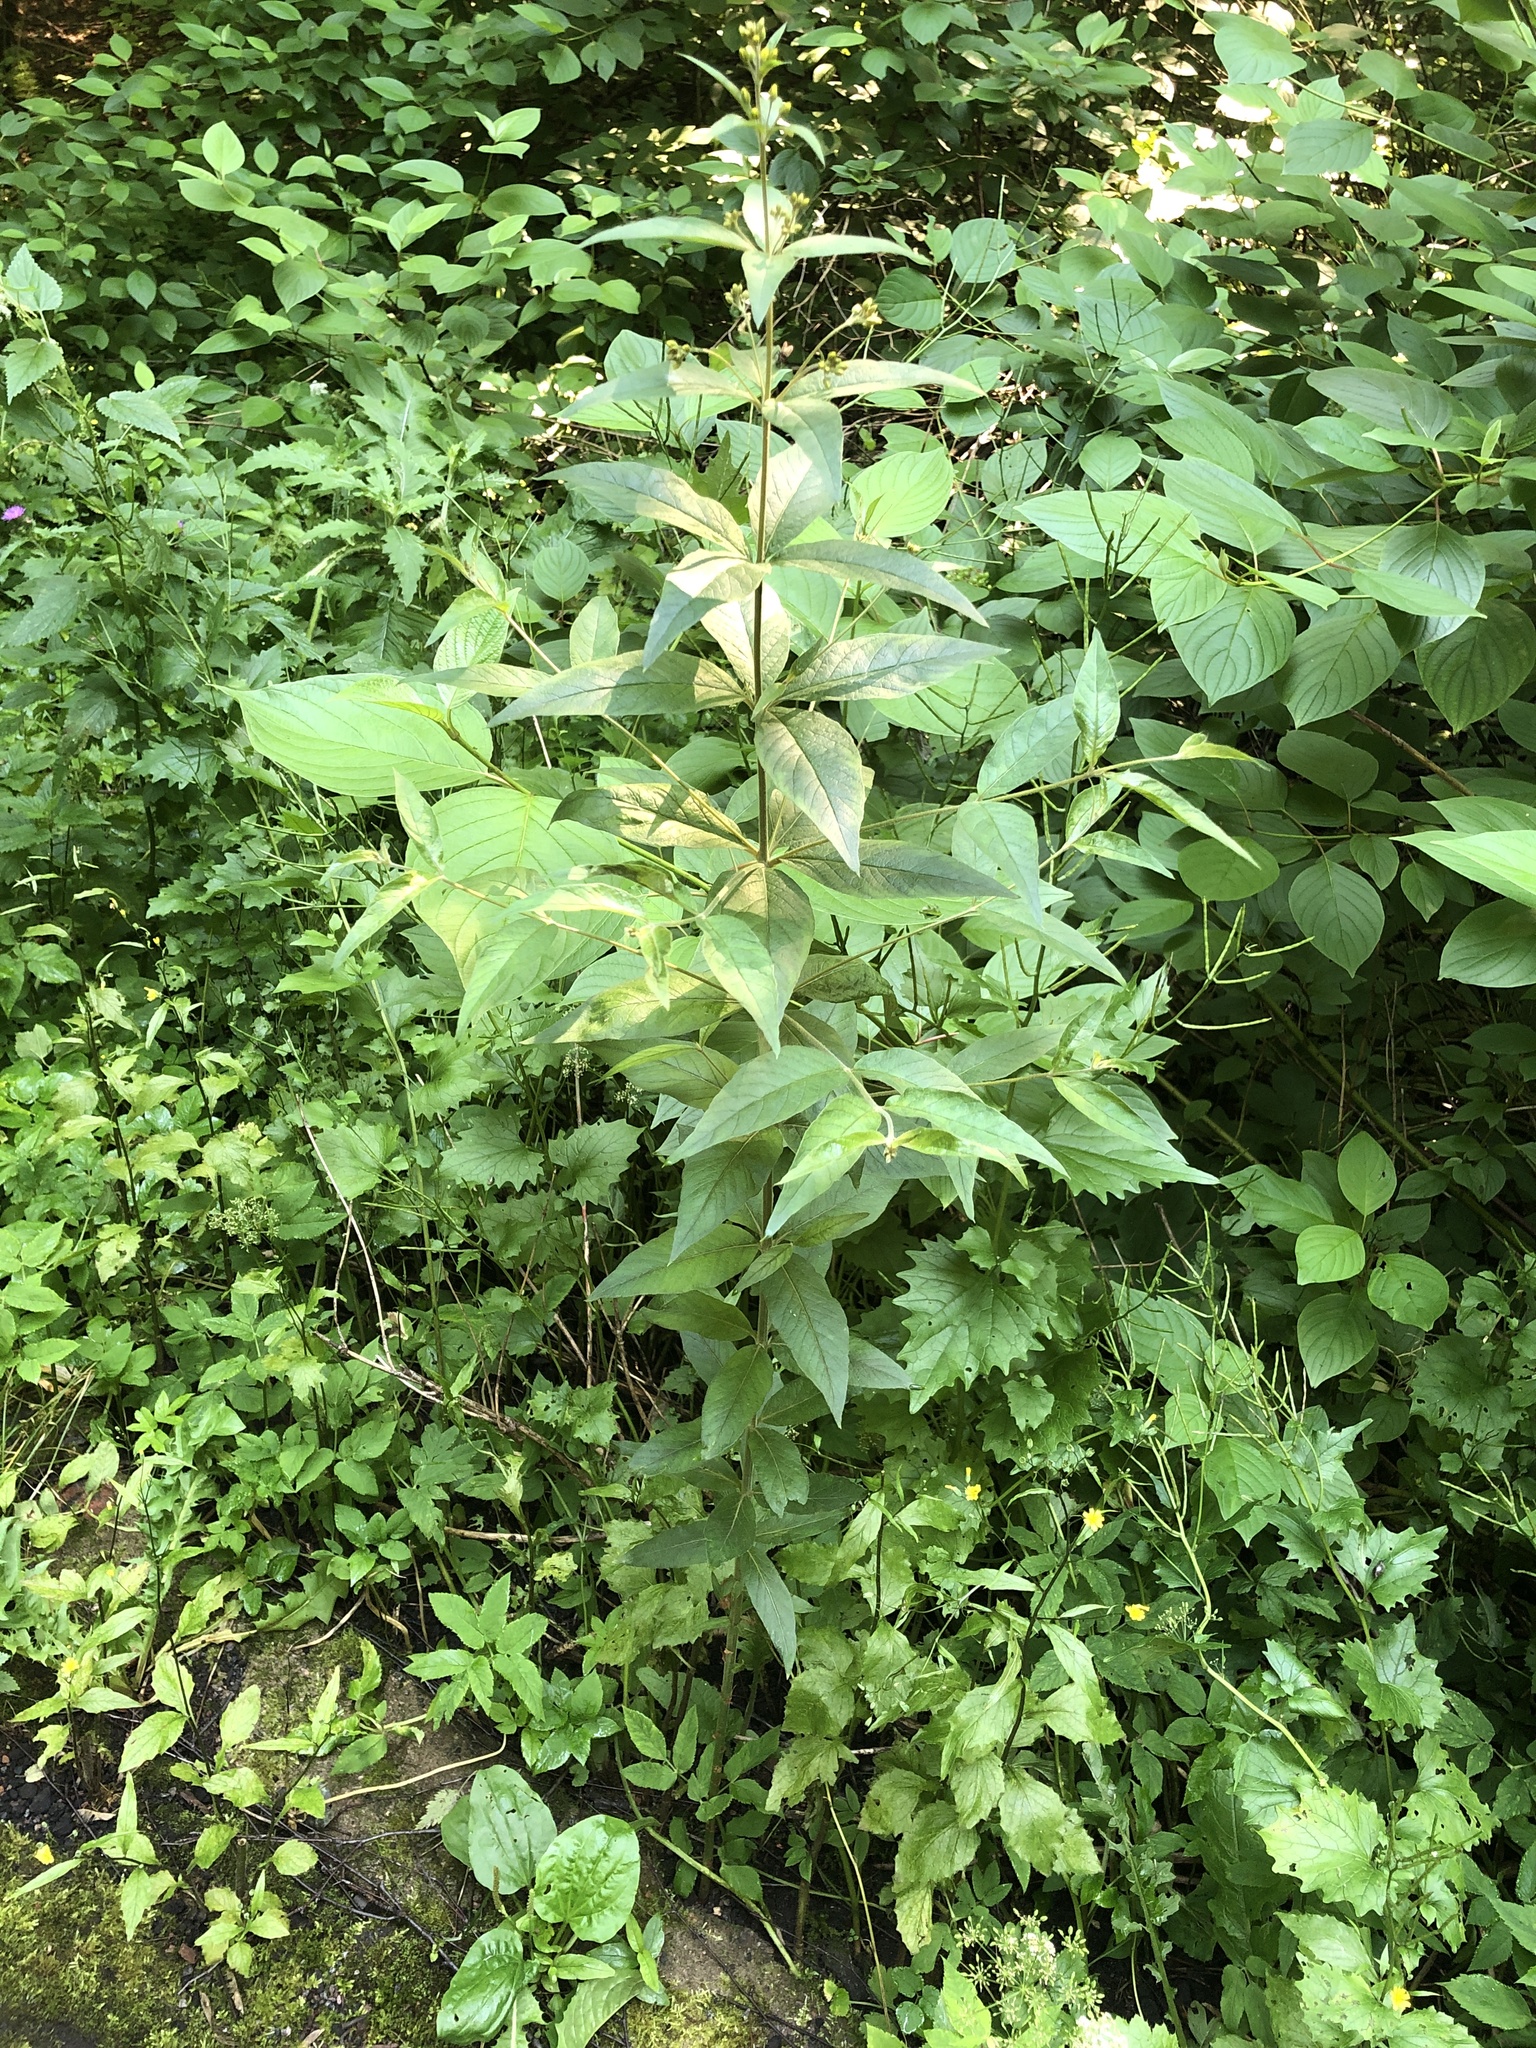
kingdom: Plantae
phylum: Tracheophyta
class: Magnoliopsida
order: Ericales
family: Primulaceae
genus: Lysimachia
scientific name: Lysimachia vulgaris
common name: Yellow loosestrife
